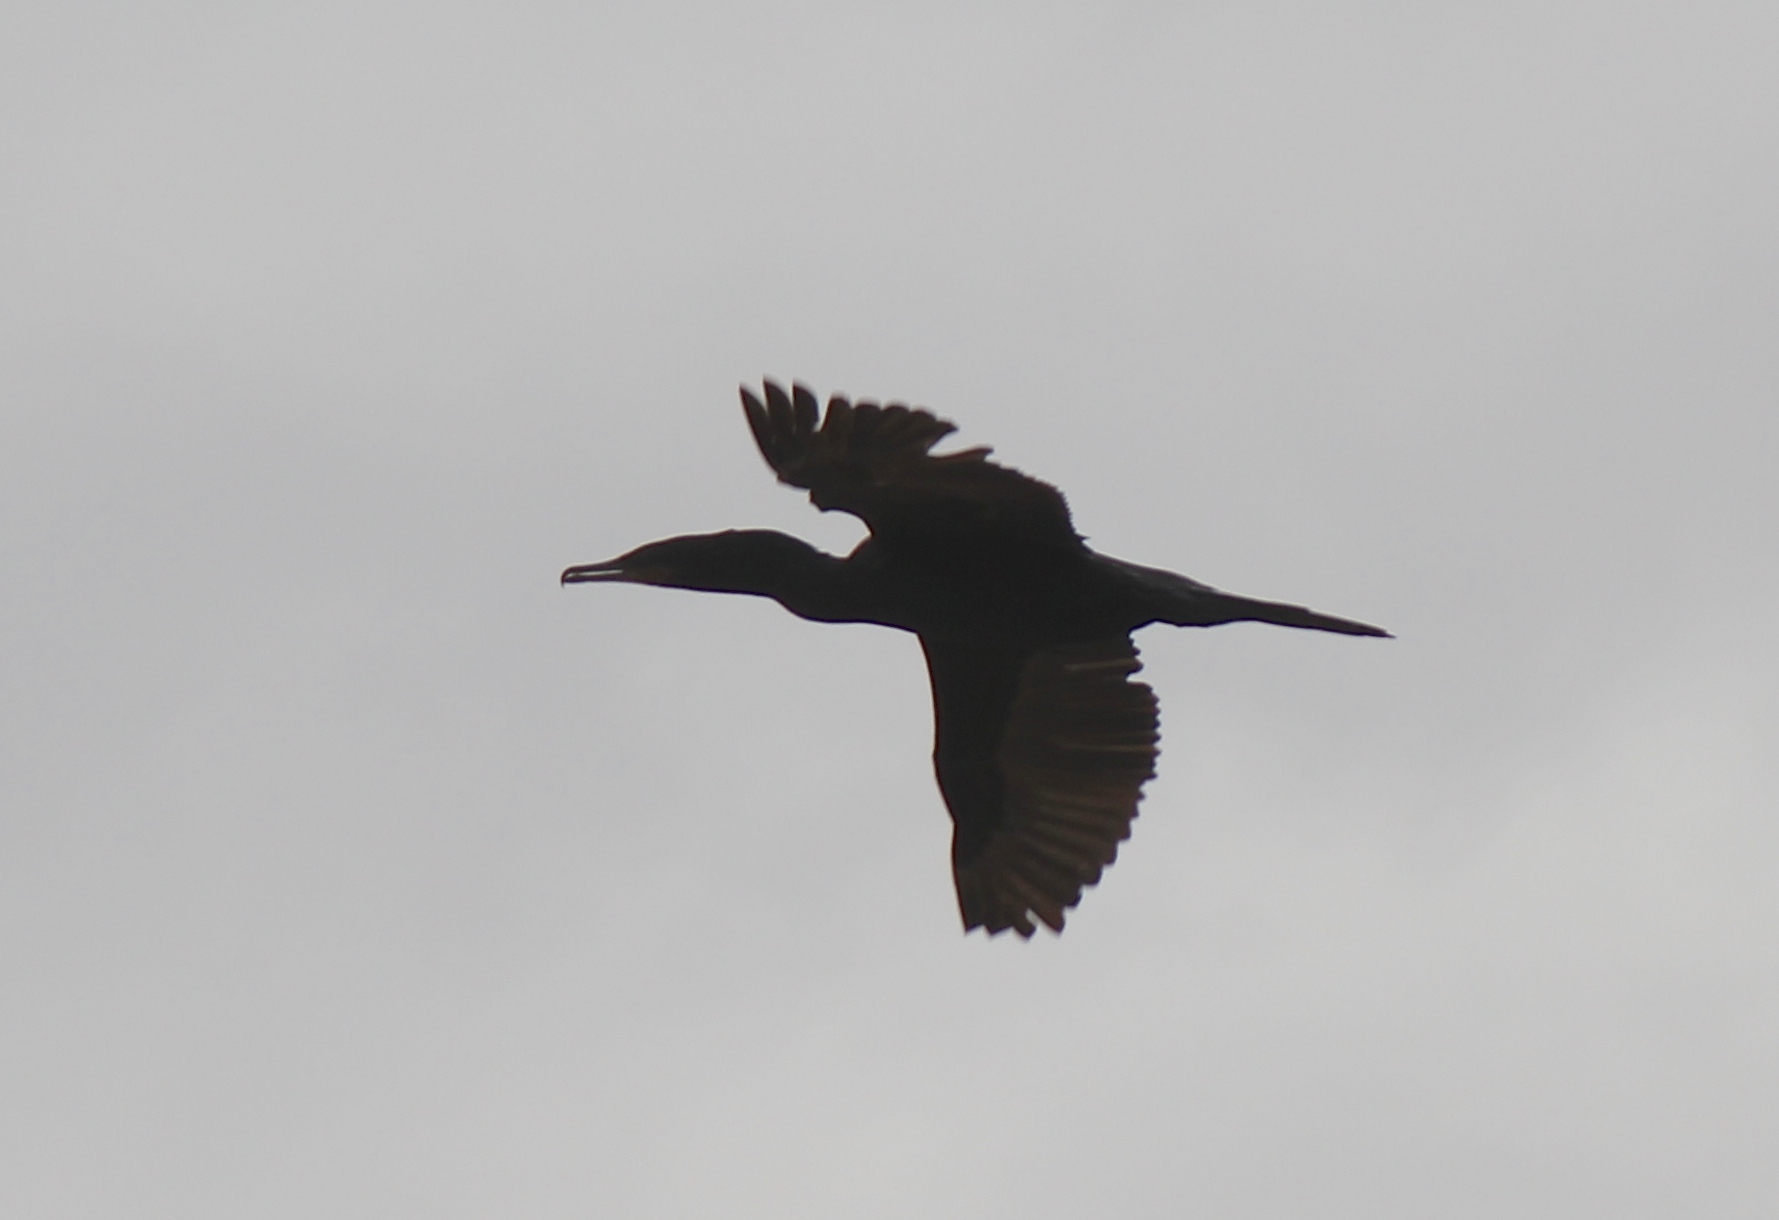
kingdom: Animalia
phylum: Chordata
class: Aves
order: Suliformes
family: Phalacrocoracidae
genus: Phalacrocorax
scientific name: Phalacrocorax brasilianus
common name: Neotropic cormorant
